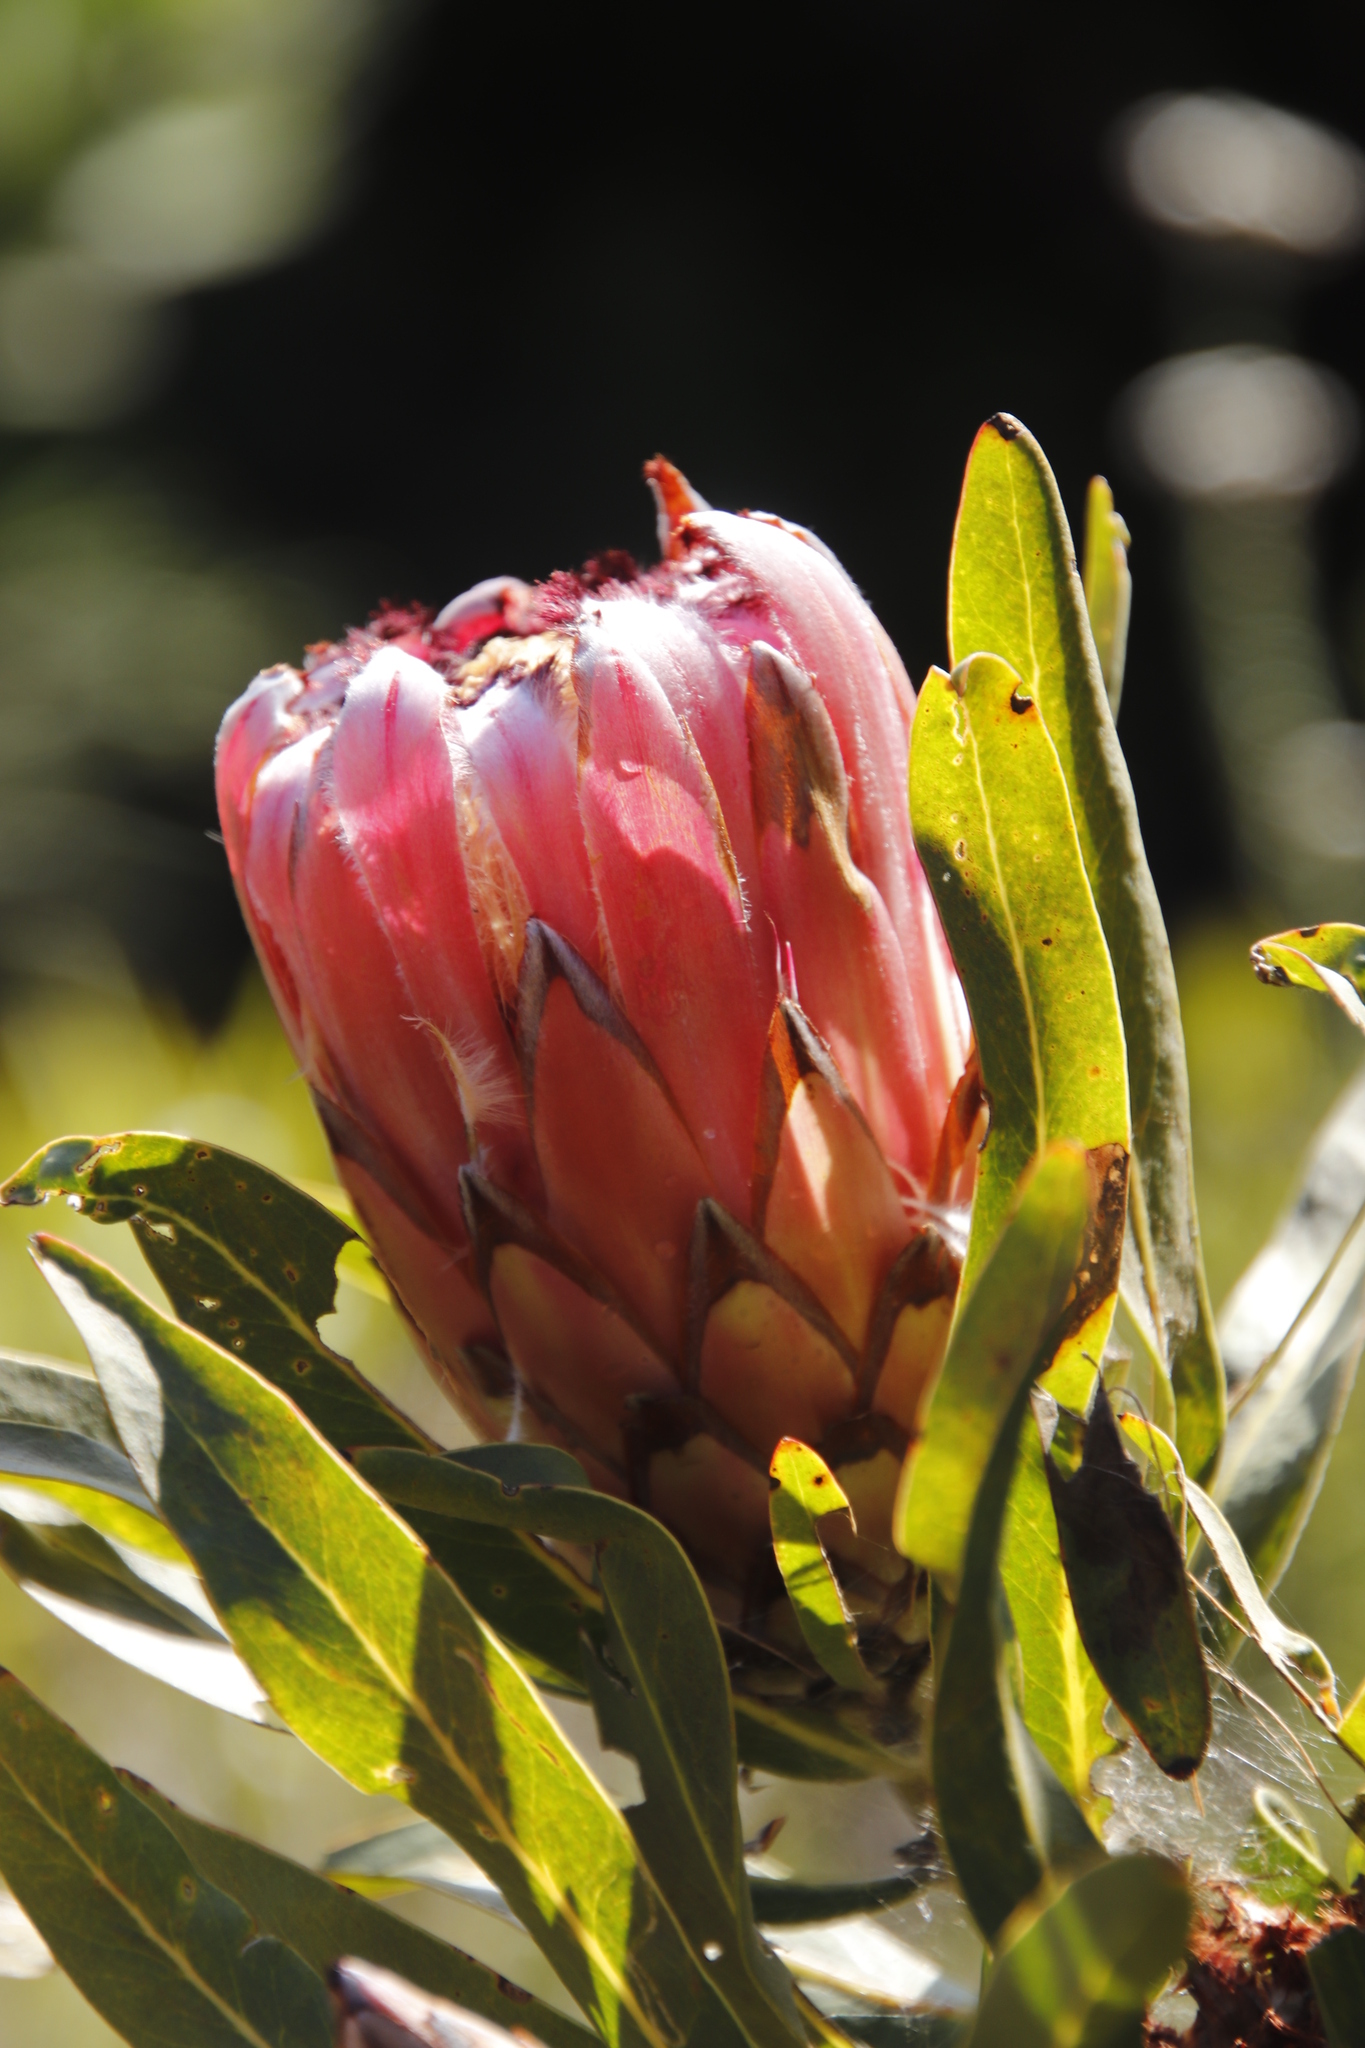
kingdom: Plantae
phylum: Tracheophyta
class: Magnoliopsida
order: Proteales
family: Proteaceae
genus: Protea
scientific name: Protea neriifolia
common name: Blue sugarbush
